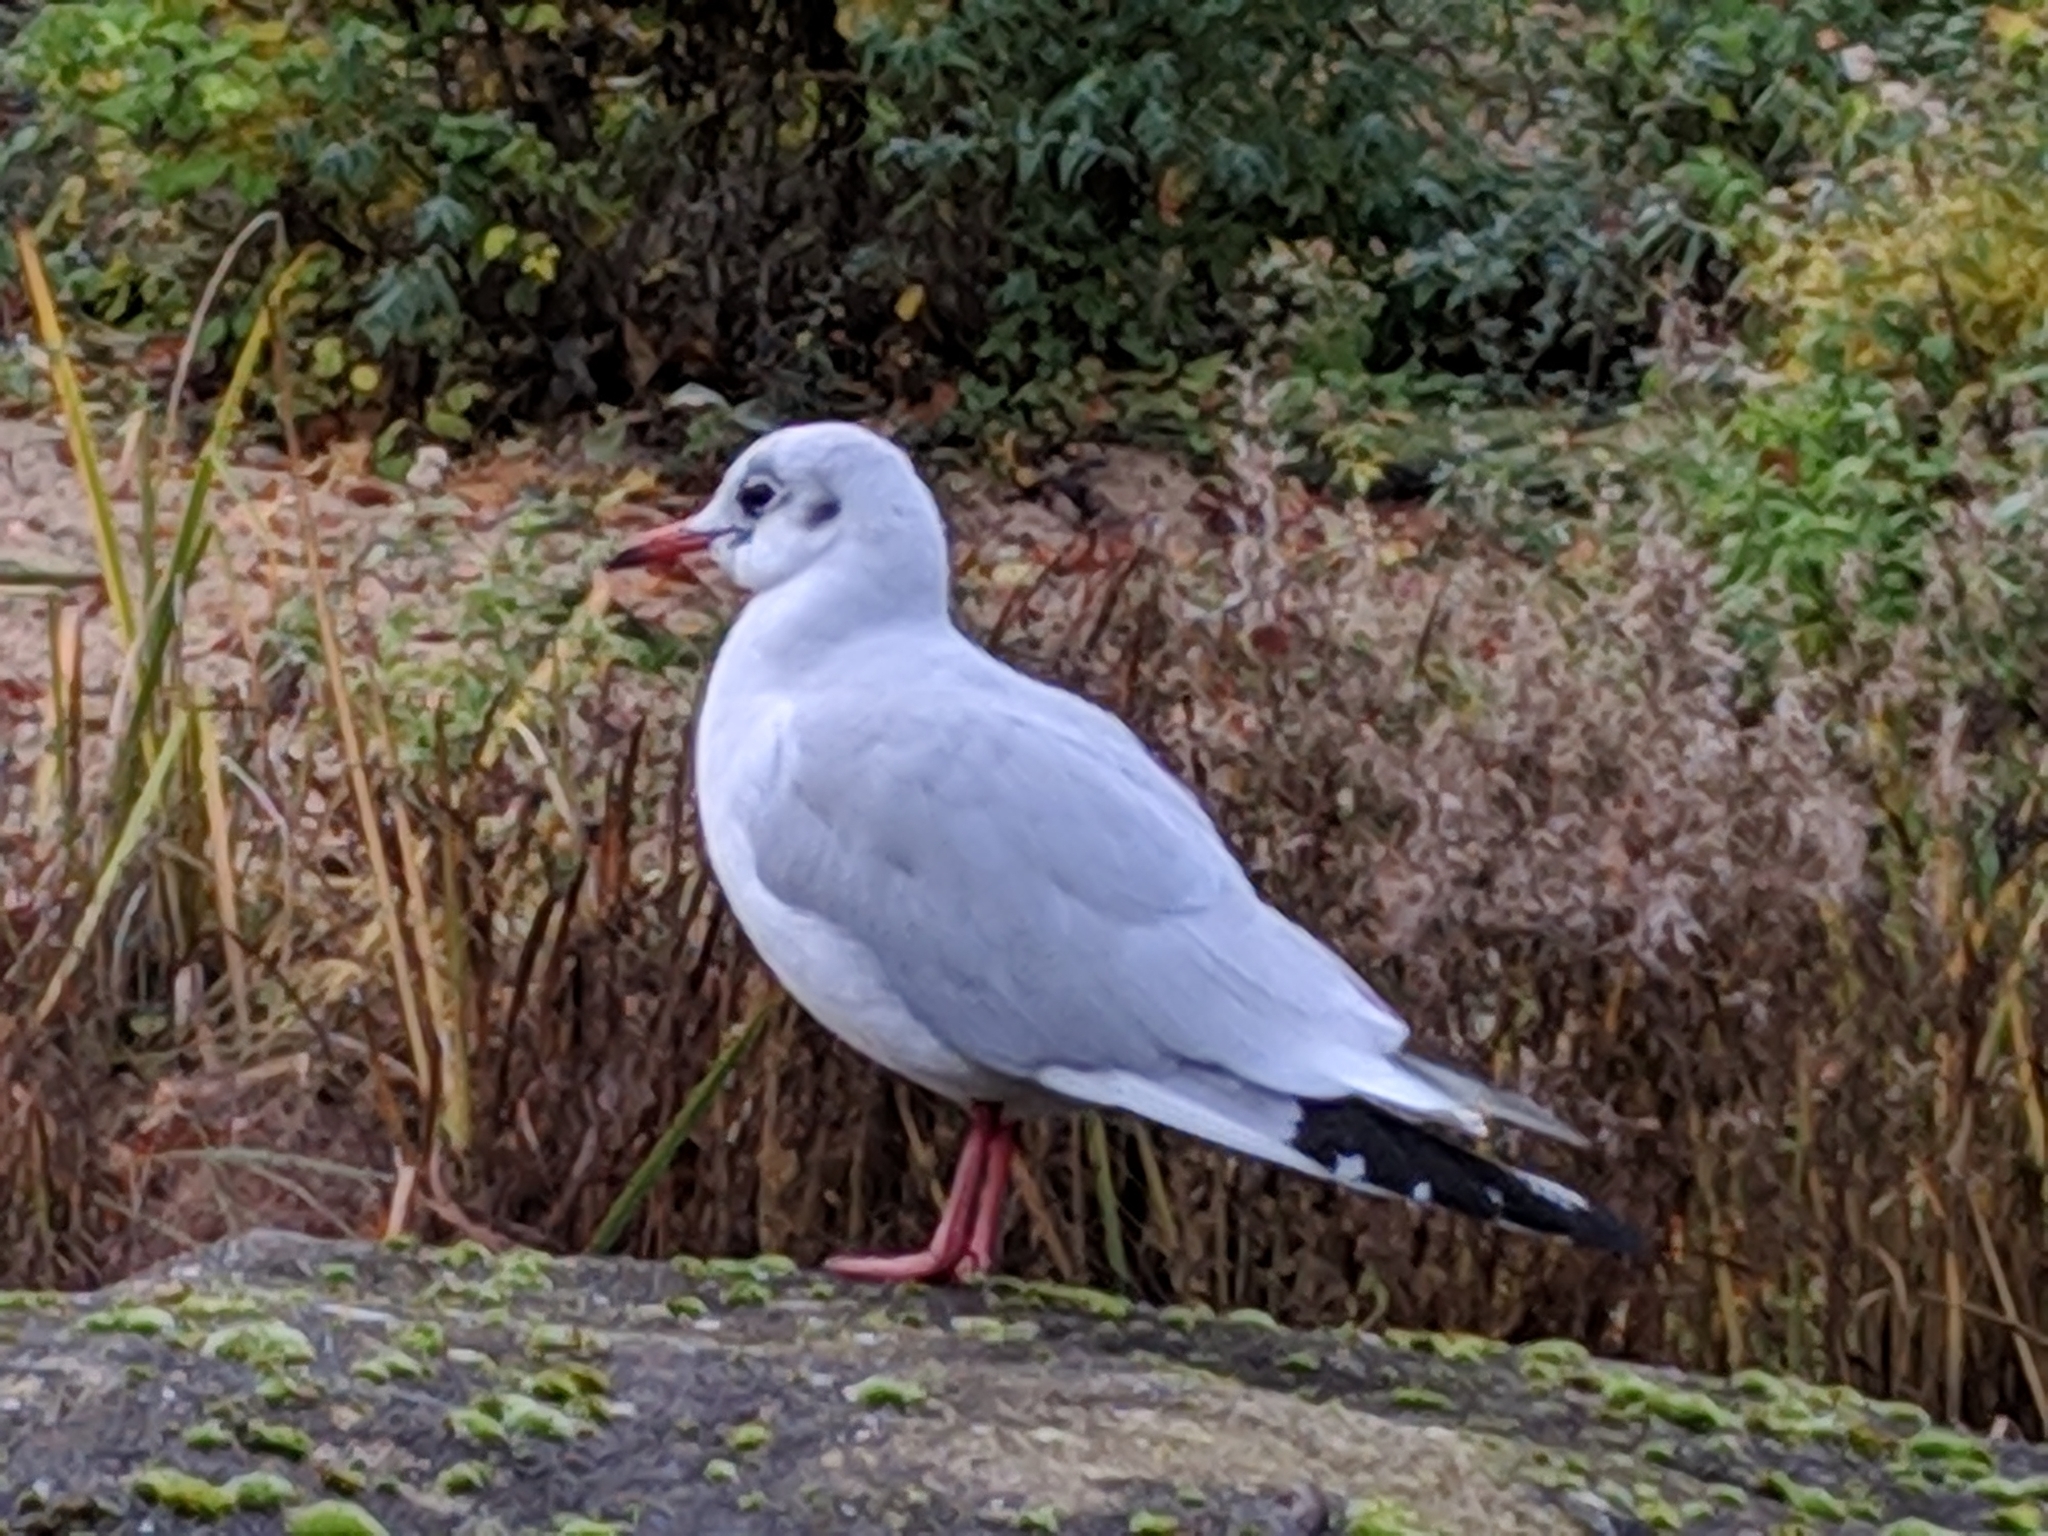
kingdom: Animalia
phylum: Chordata
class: Aves
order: Charadriiformes
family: Laridae
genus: Chroicocephalus
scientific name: Chroicocephalus ridibundus
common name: Black-headed gull
